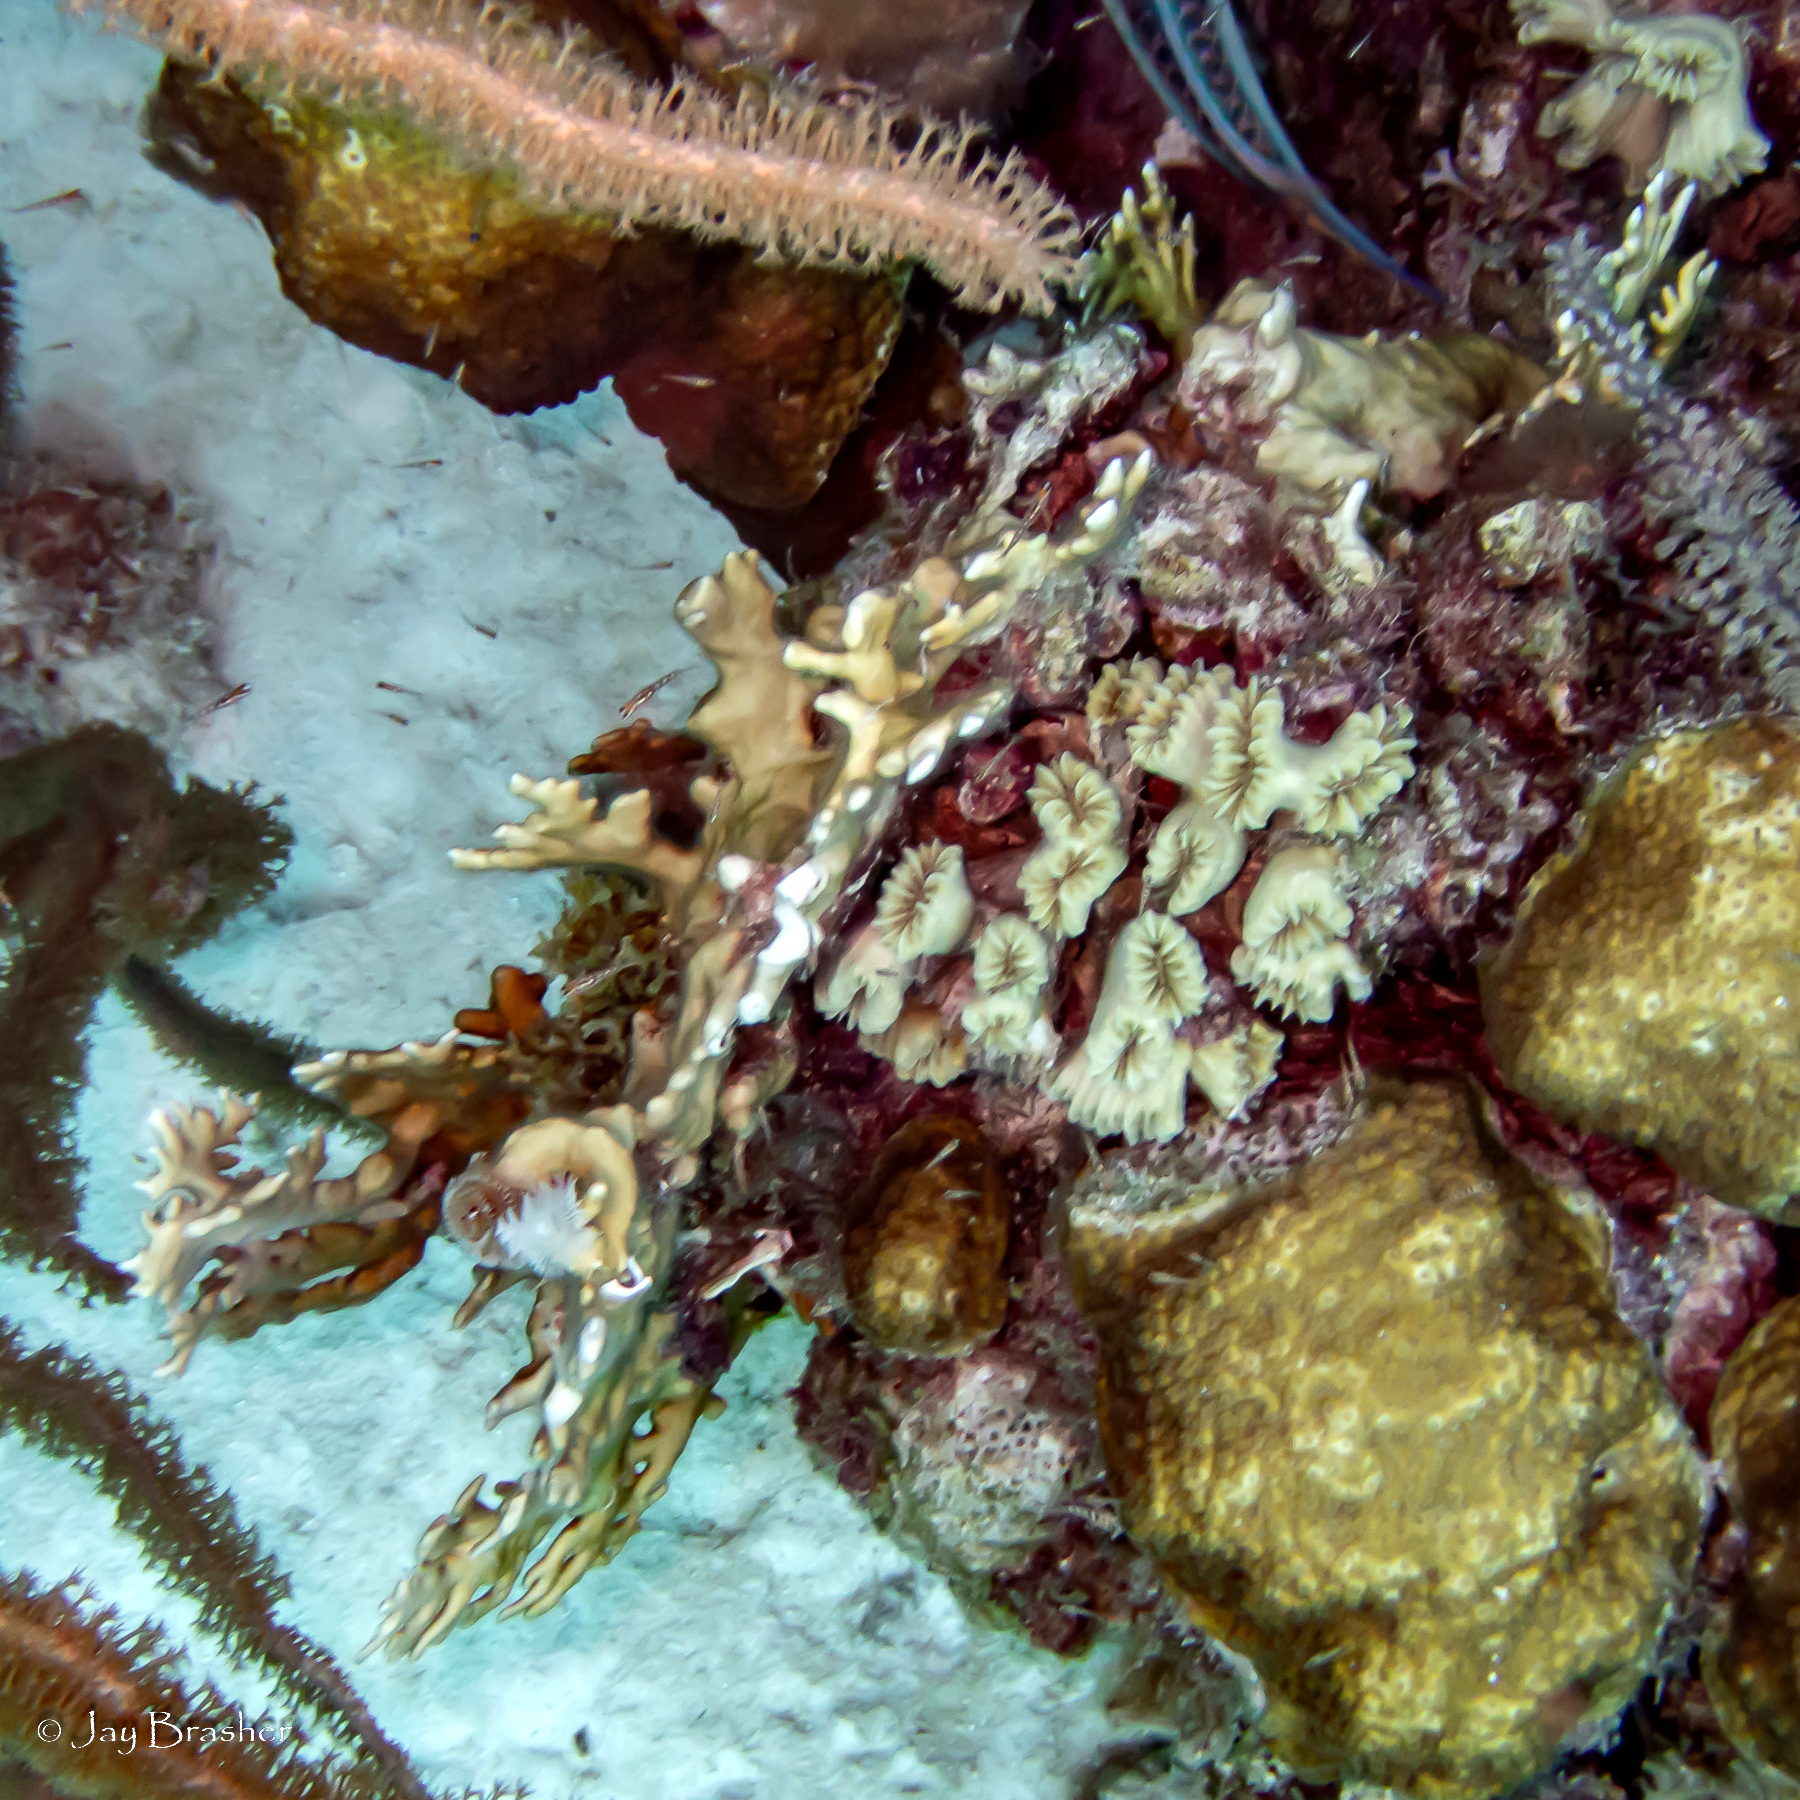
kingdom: Animalia
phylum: Cnidaria
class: Anthozoa
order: Scleractinia
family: Meandrinidae
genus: Eusmilia
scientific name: Eusmilia fastigiata
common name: Smooth flower coral
